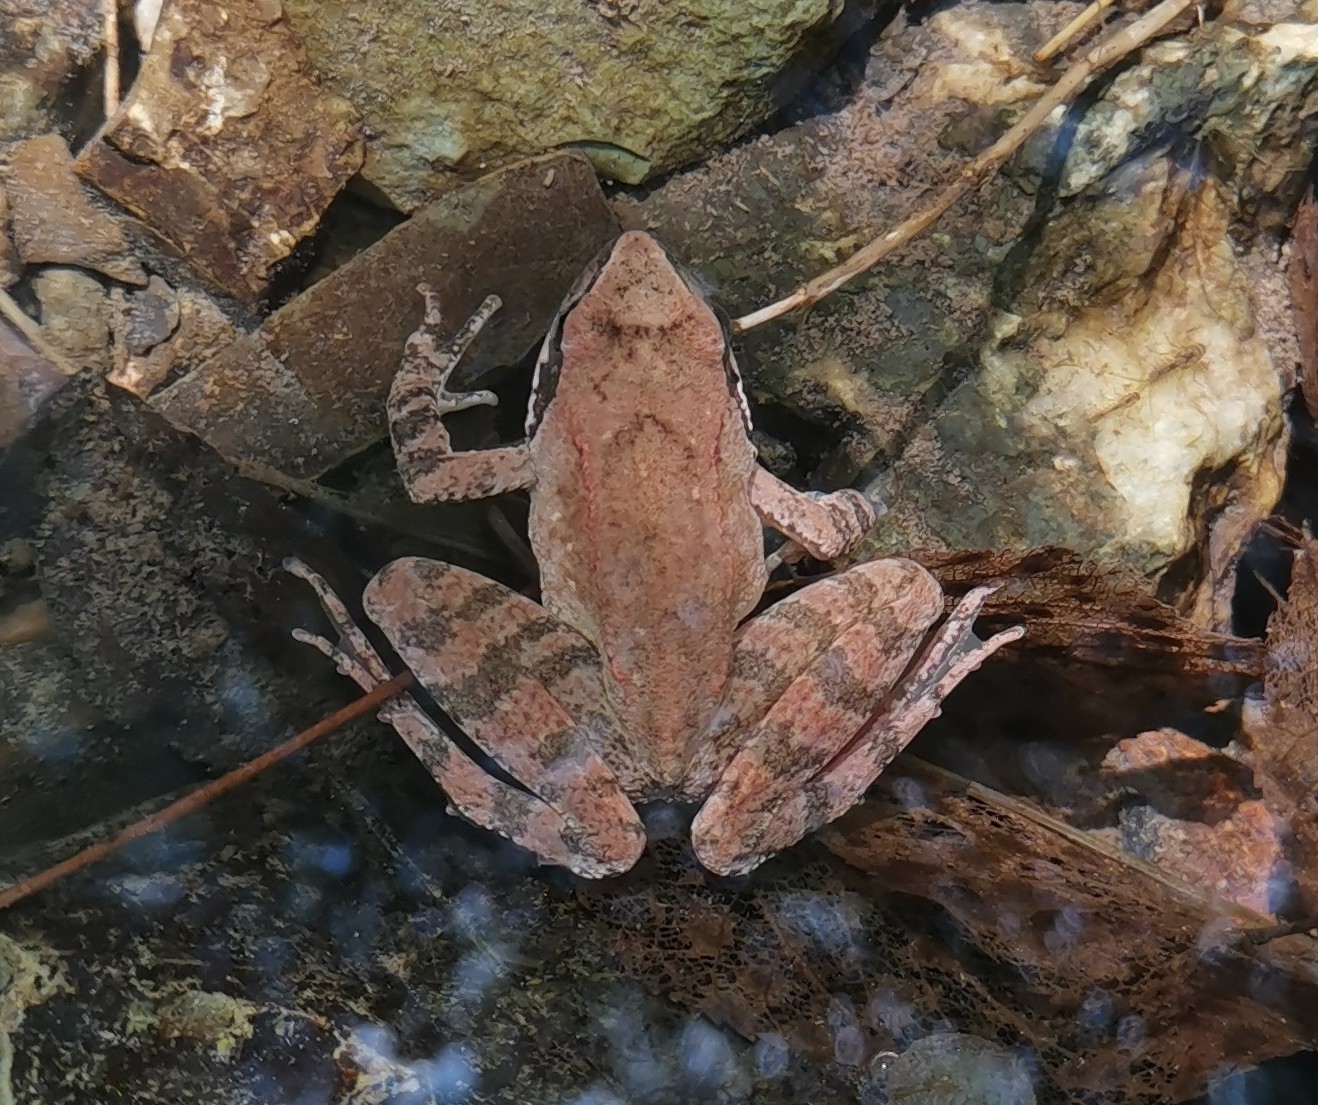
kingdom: Animalia
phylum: Chordata
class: Amphibia
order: Anura
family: Ranidae
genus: Rana
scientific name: Rana italica
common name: Italian stream frog
